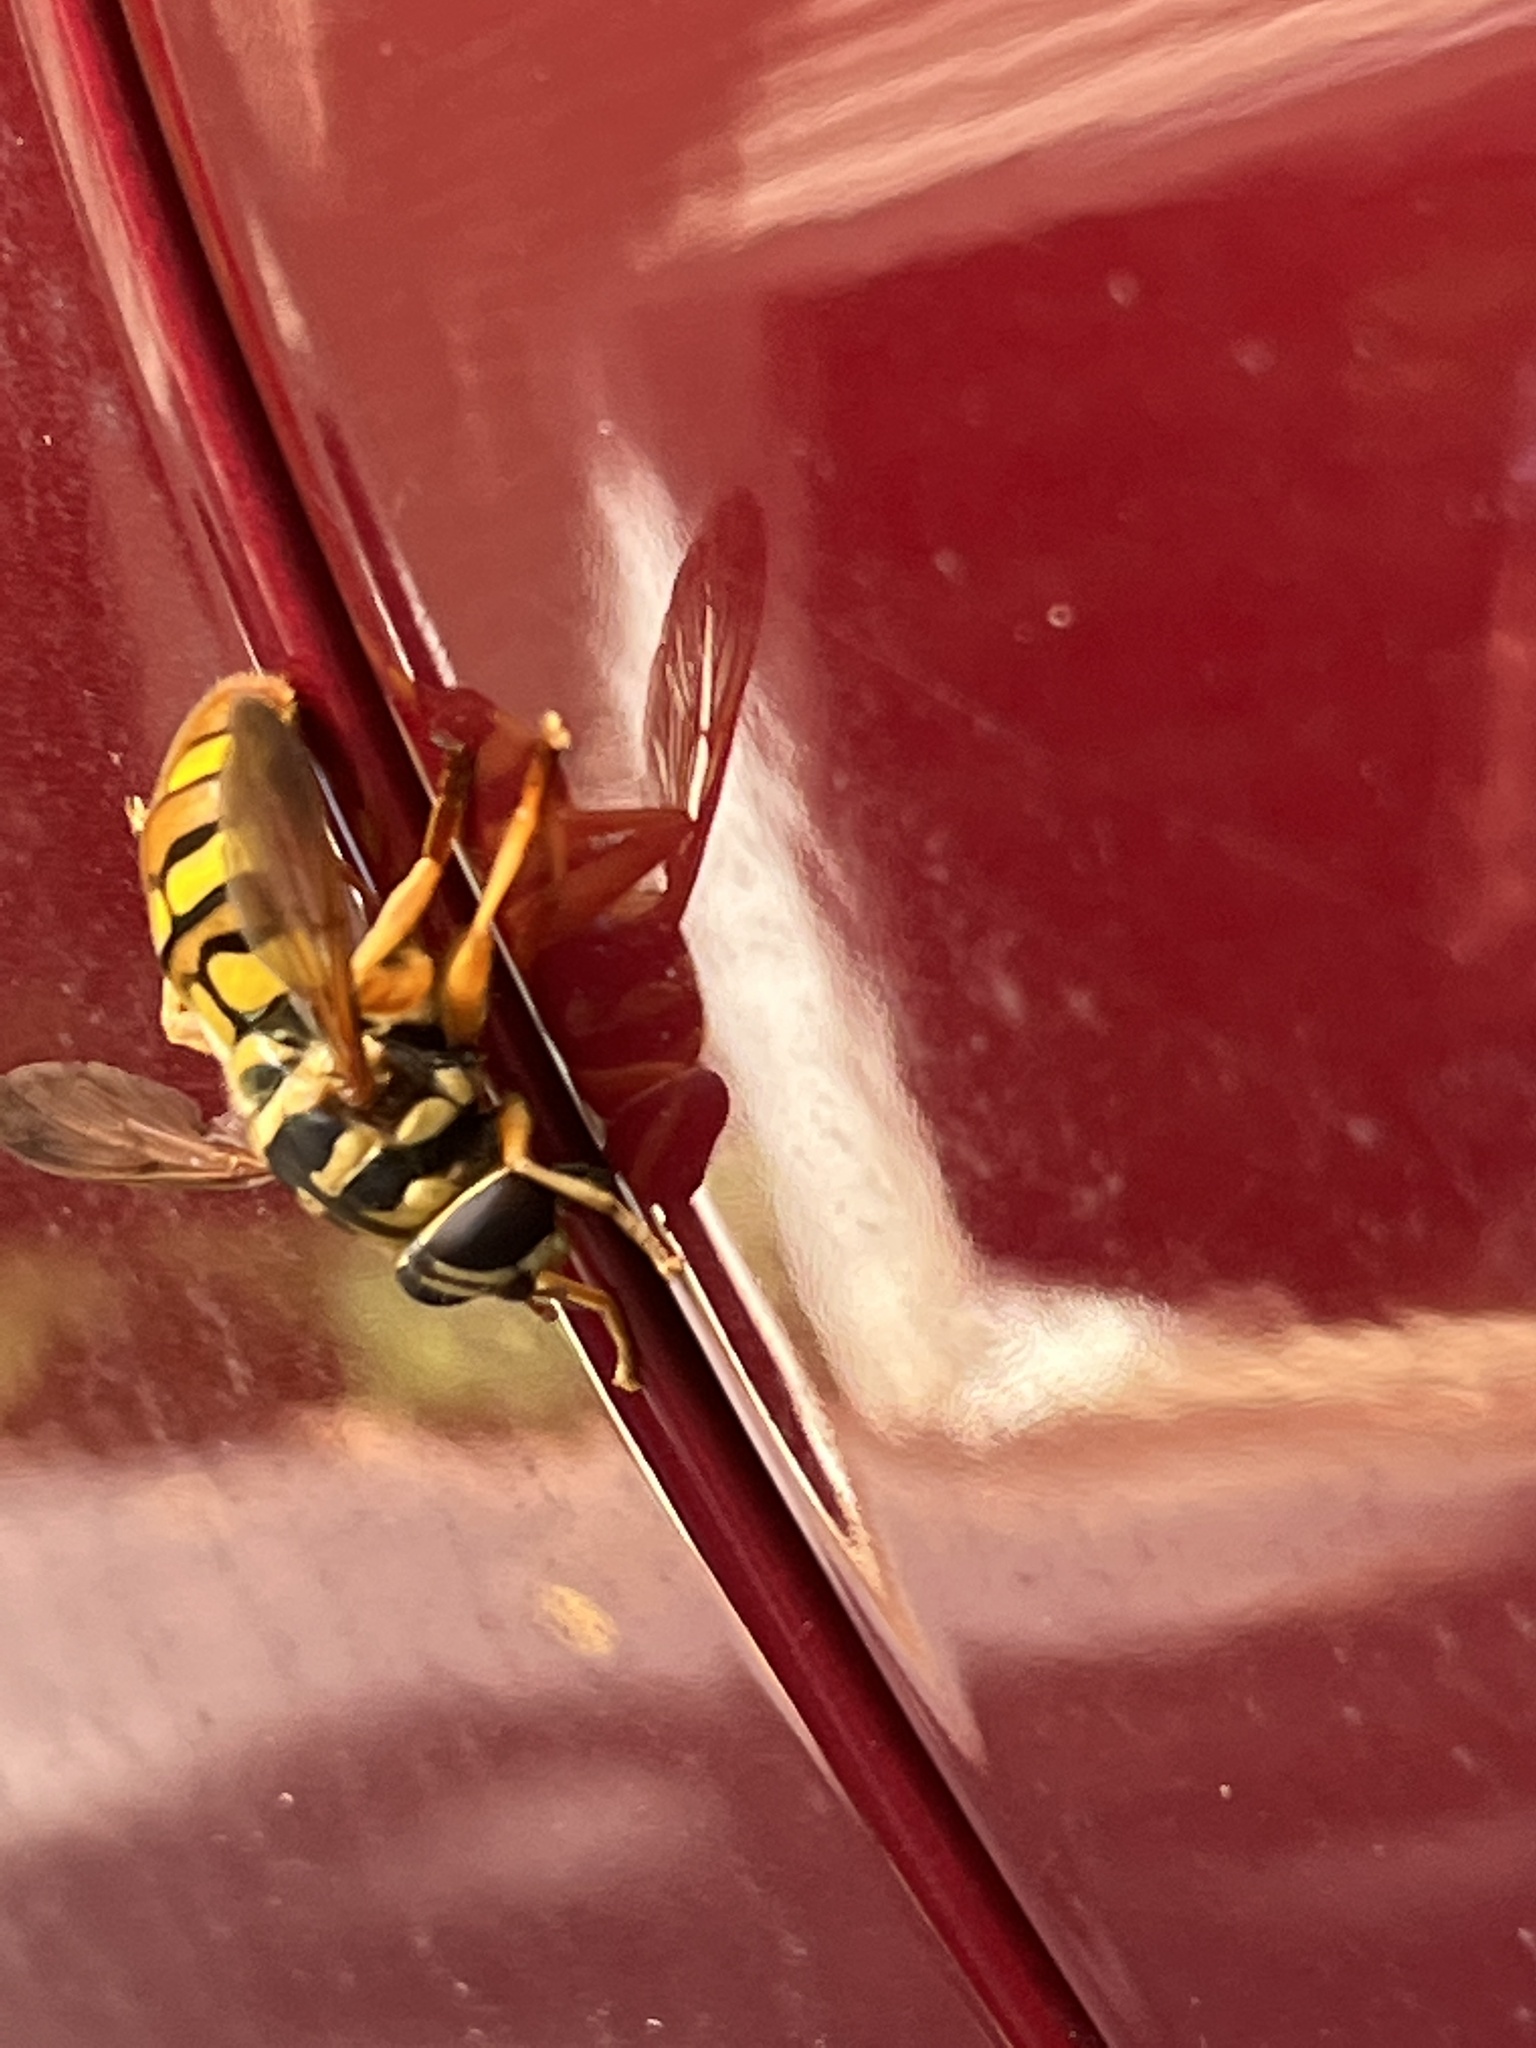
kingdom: Animalia
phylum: Arthropoda
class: Insecta
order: Diptera
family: Syrphidae
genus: Milesia
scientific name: Milesia virginiensis
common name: Virginia giant
